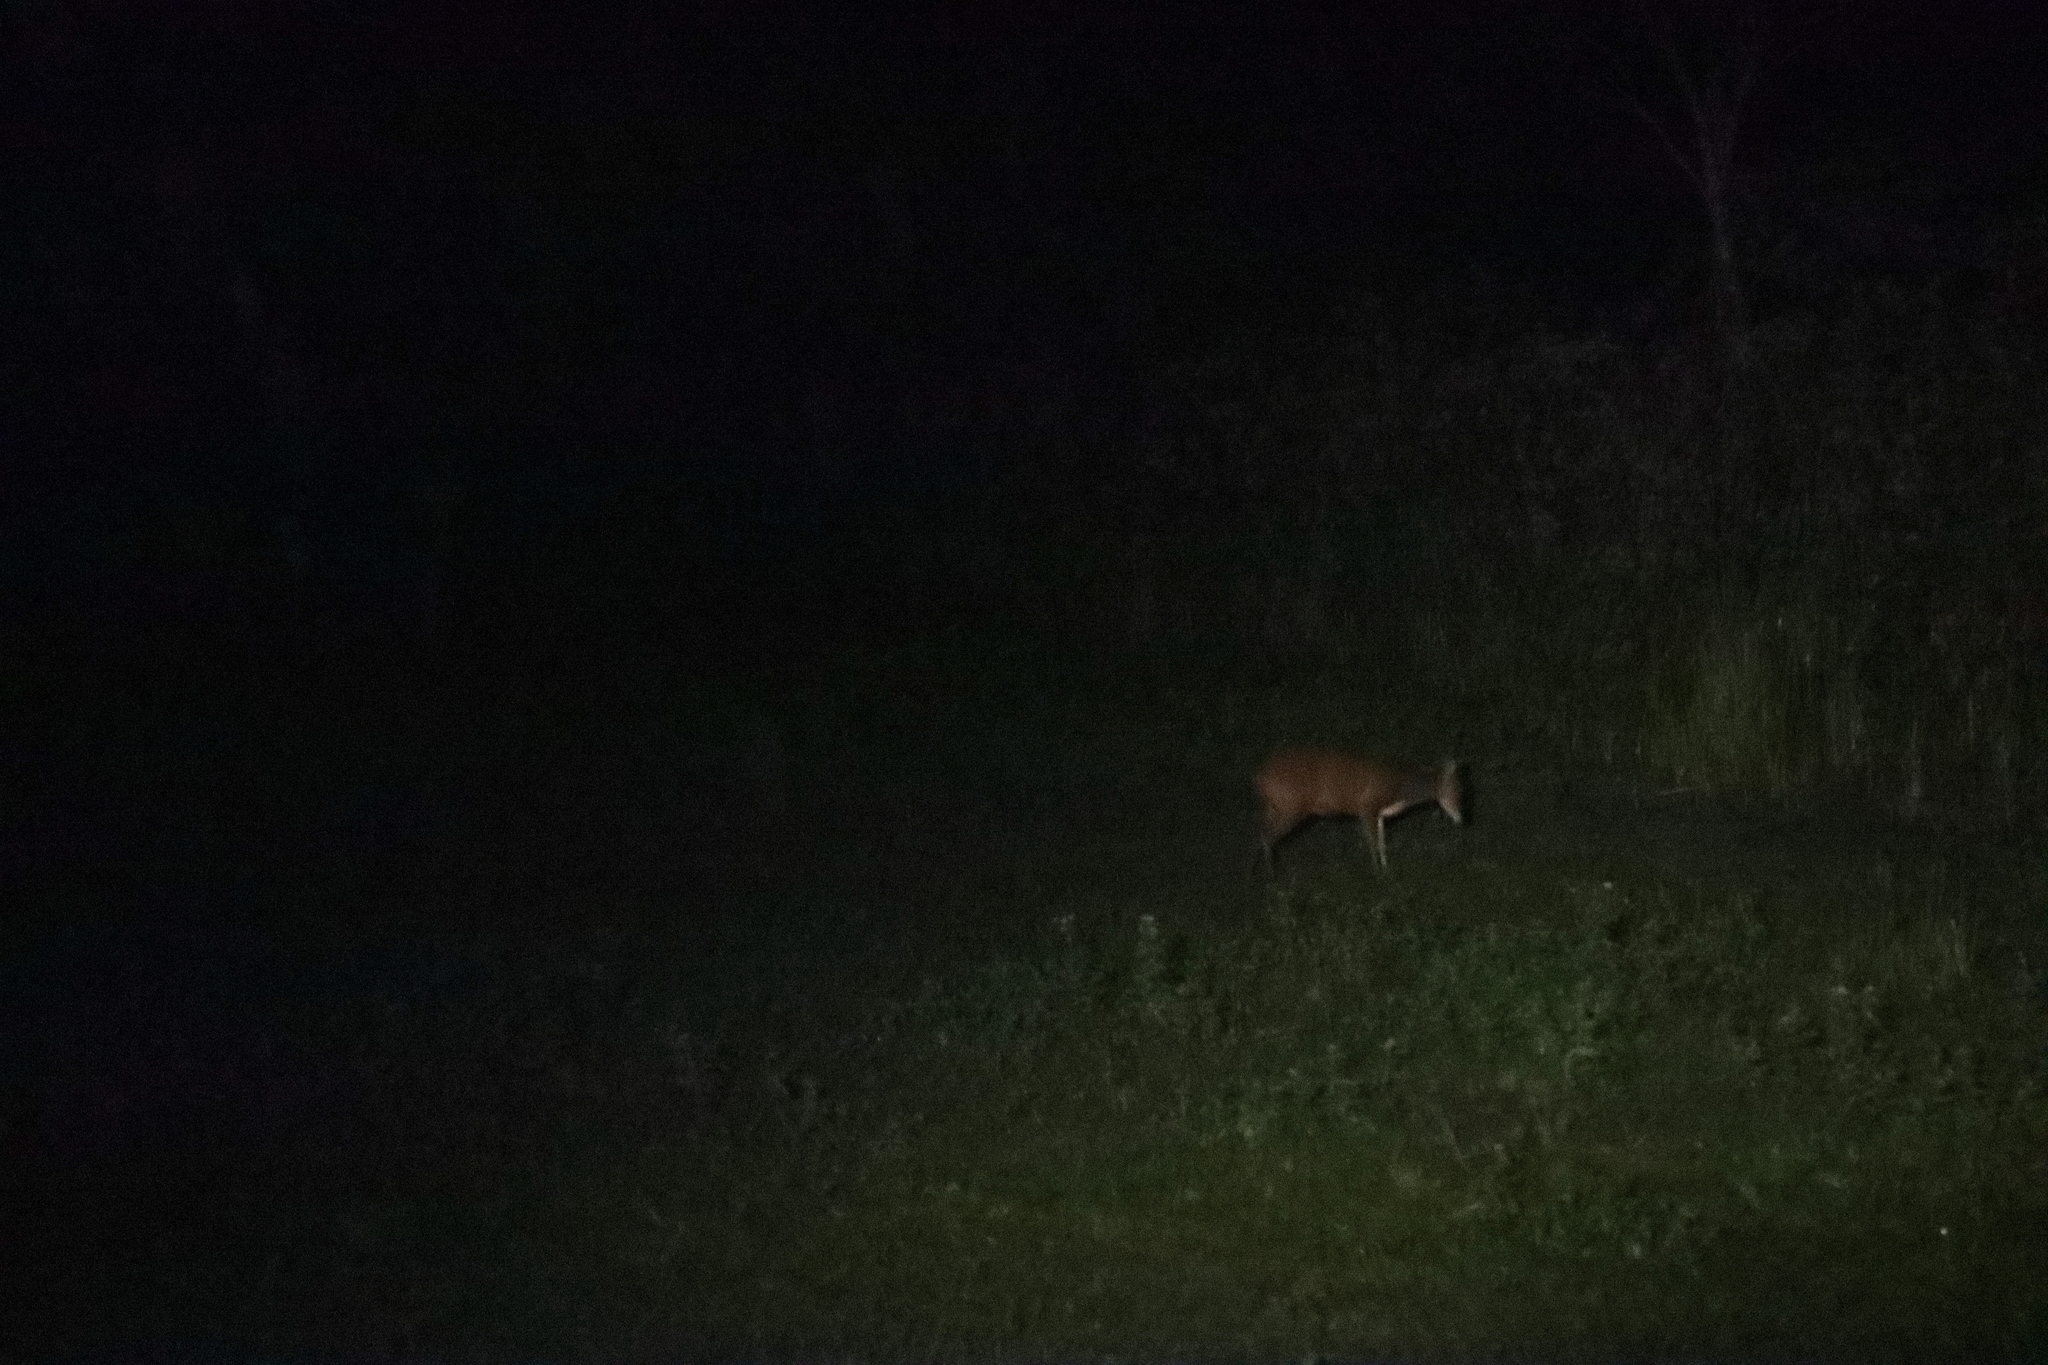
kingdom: Animalia
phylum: Chordata
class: Mammalia
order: Artiodactyla
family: Cervidae
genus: Muntiacus
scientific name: Muntiacus muntjak
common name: Indian muntjac
